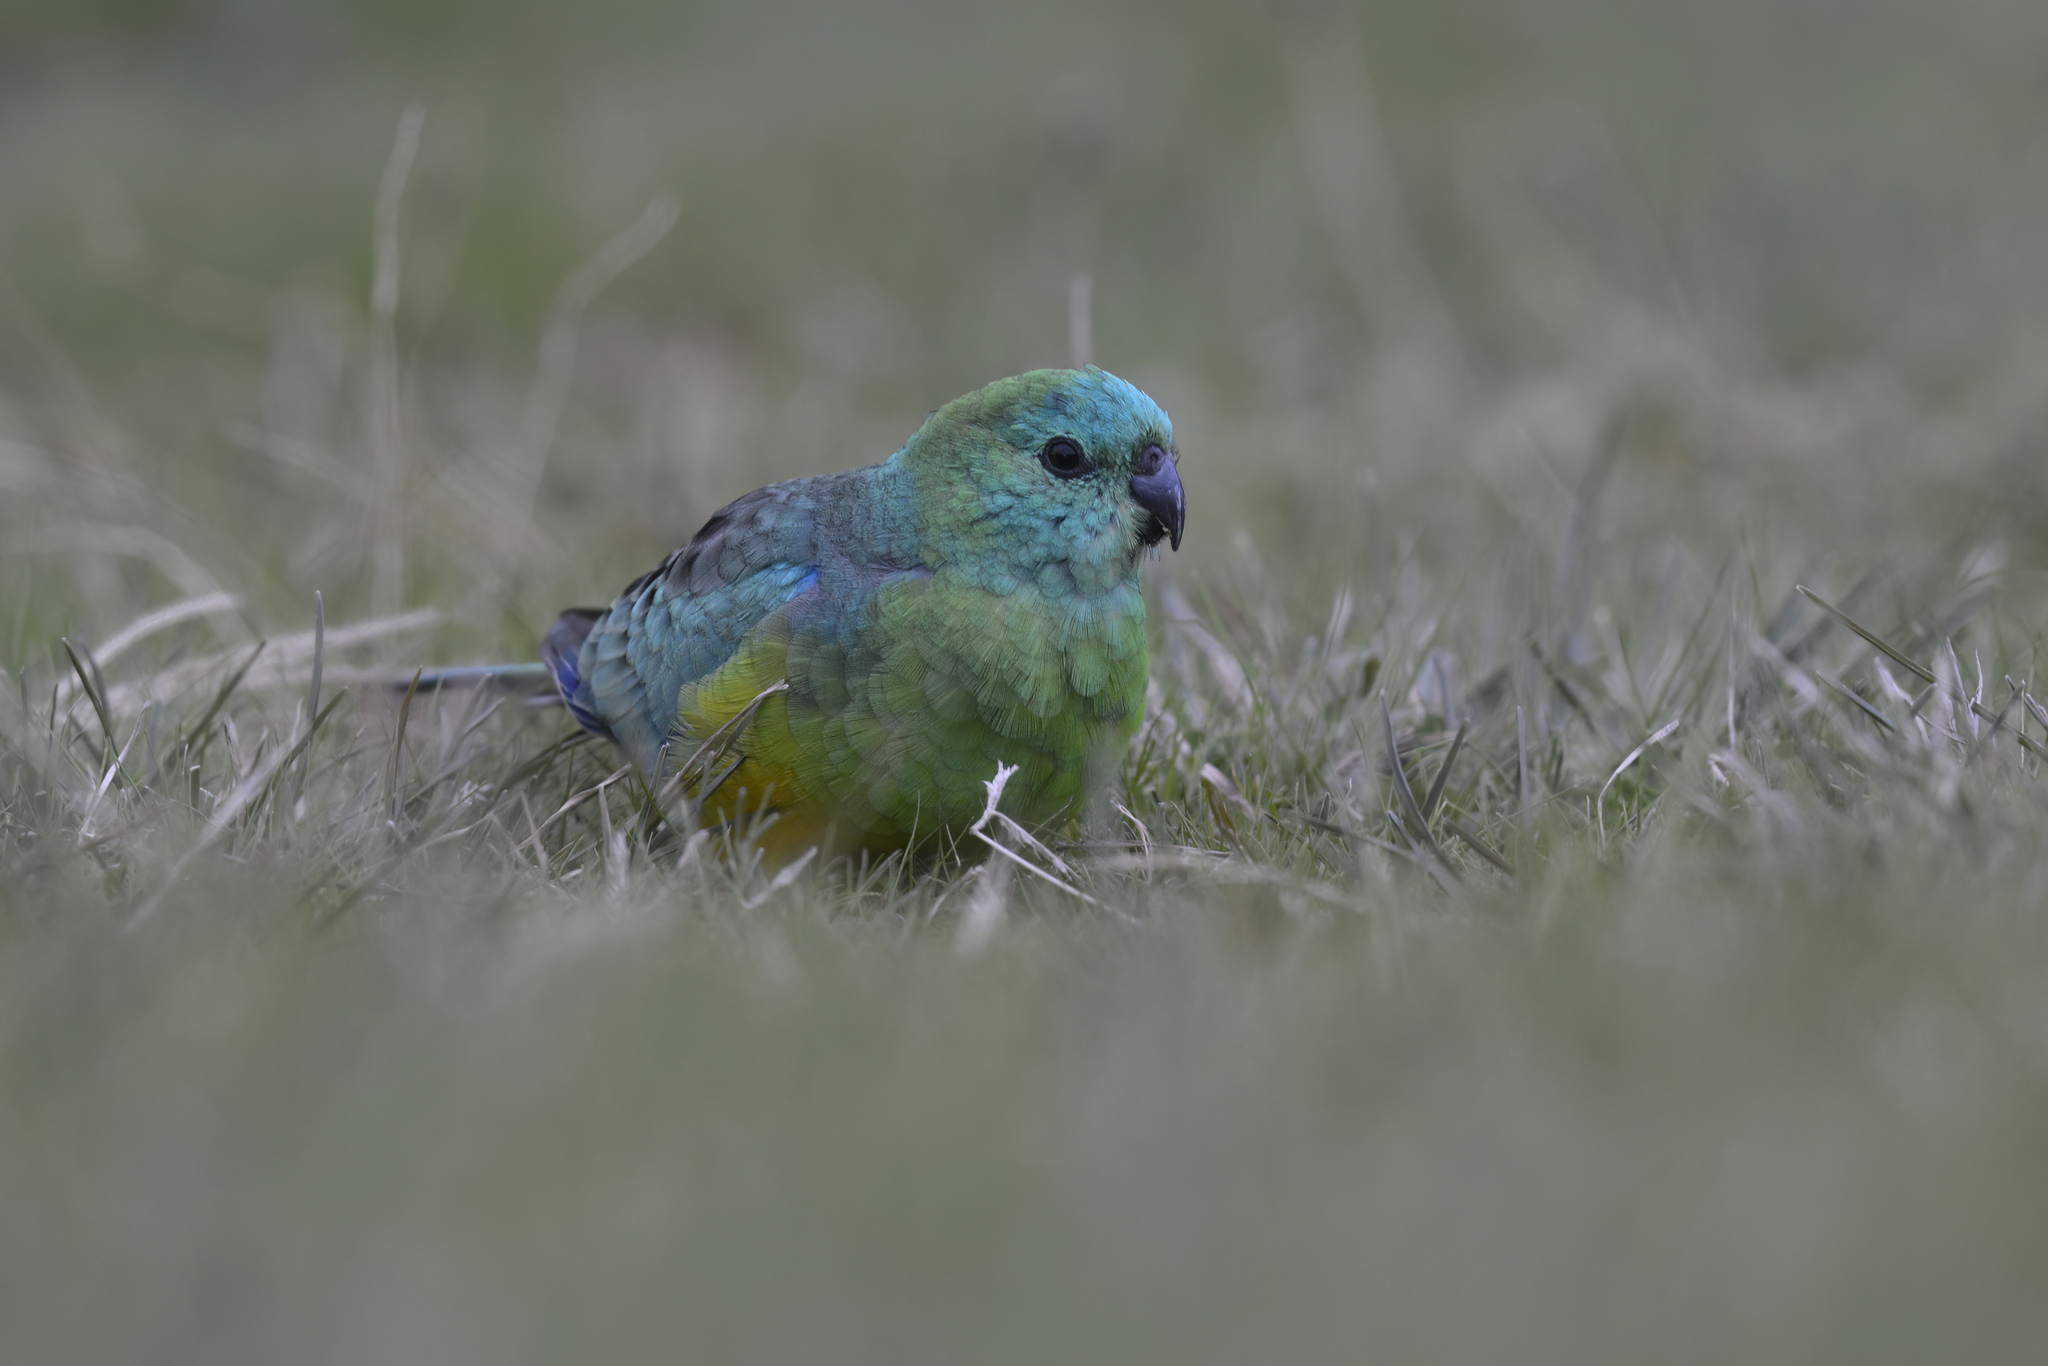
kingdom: Animalia
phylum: Chordata
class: Aves
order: Psittaciformes
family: Psittacidae
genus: Psephotus
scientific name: Psephotus haematonotus
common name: Red-rumped parrot
